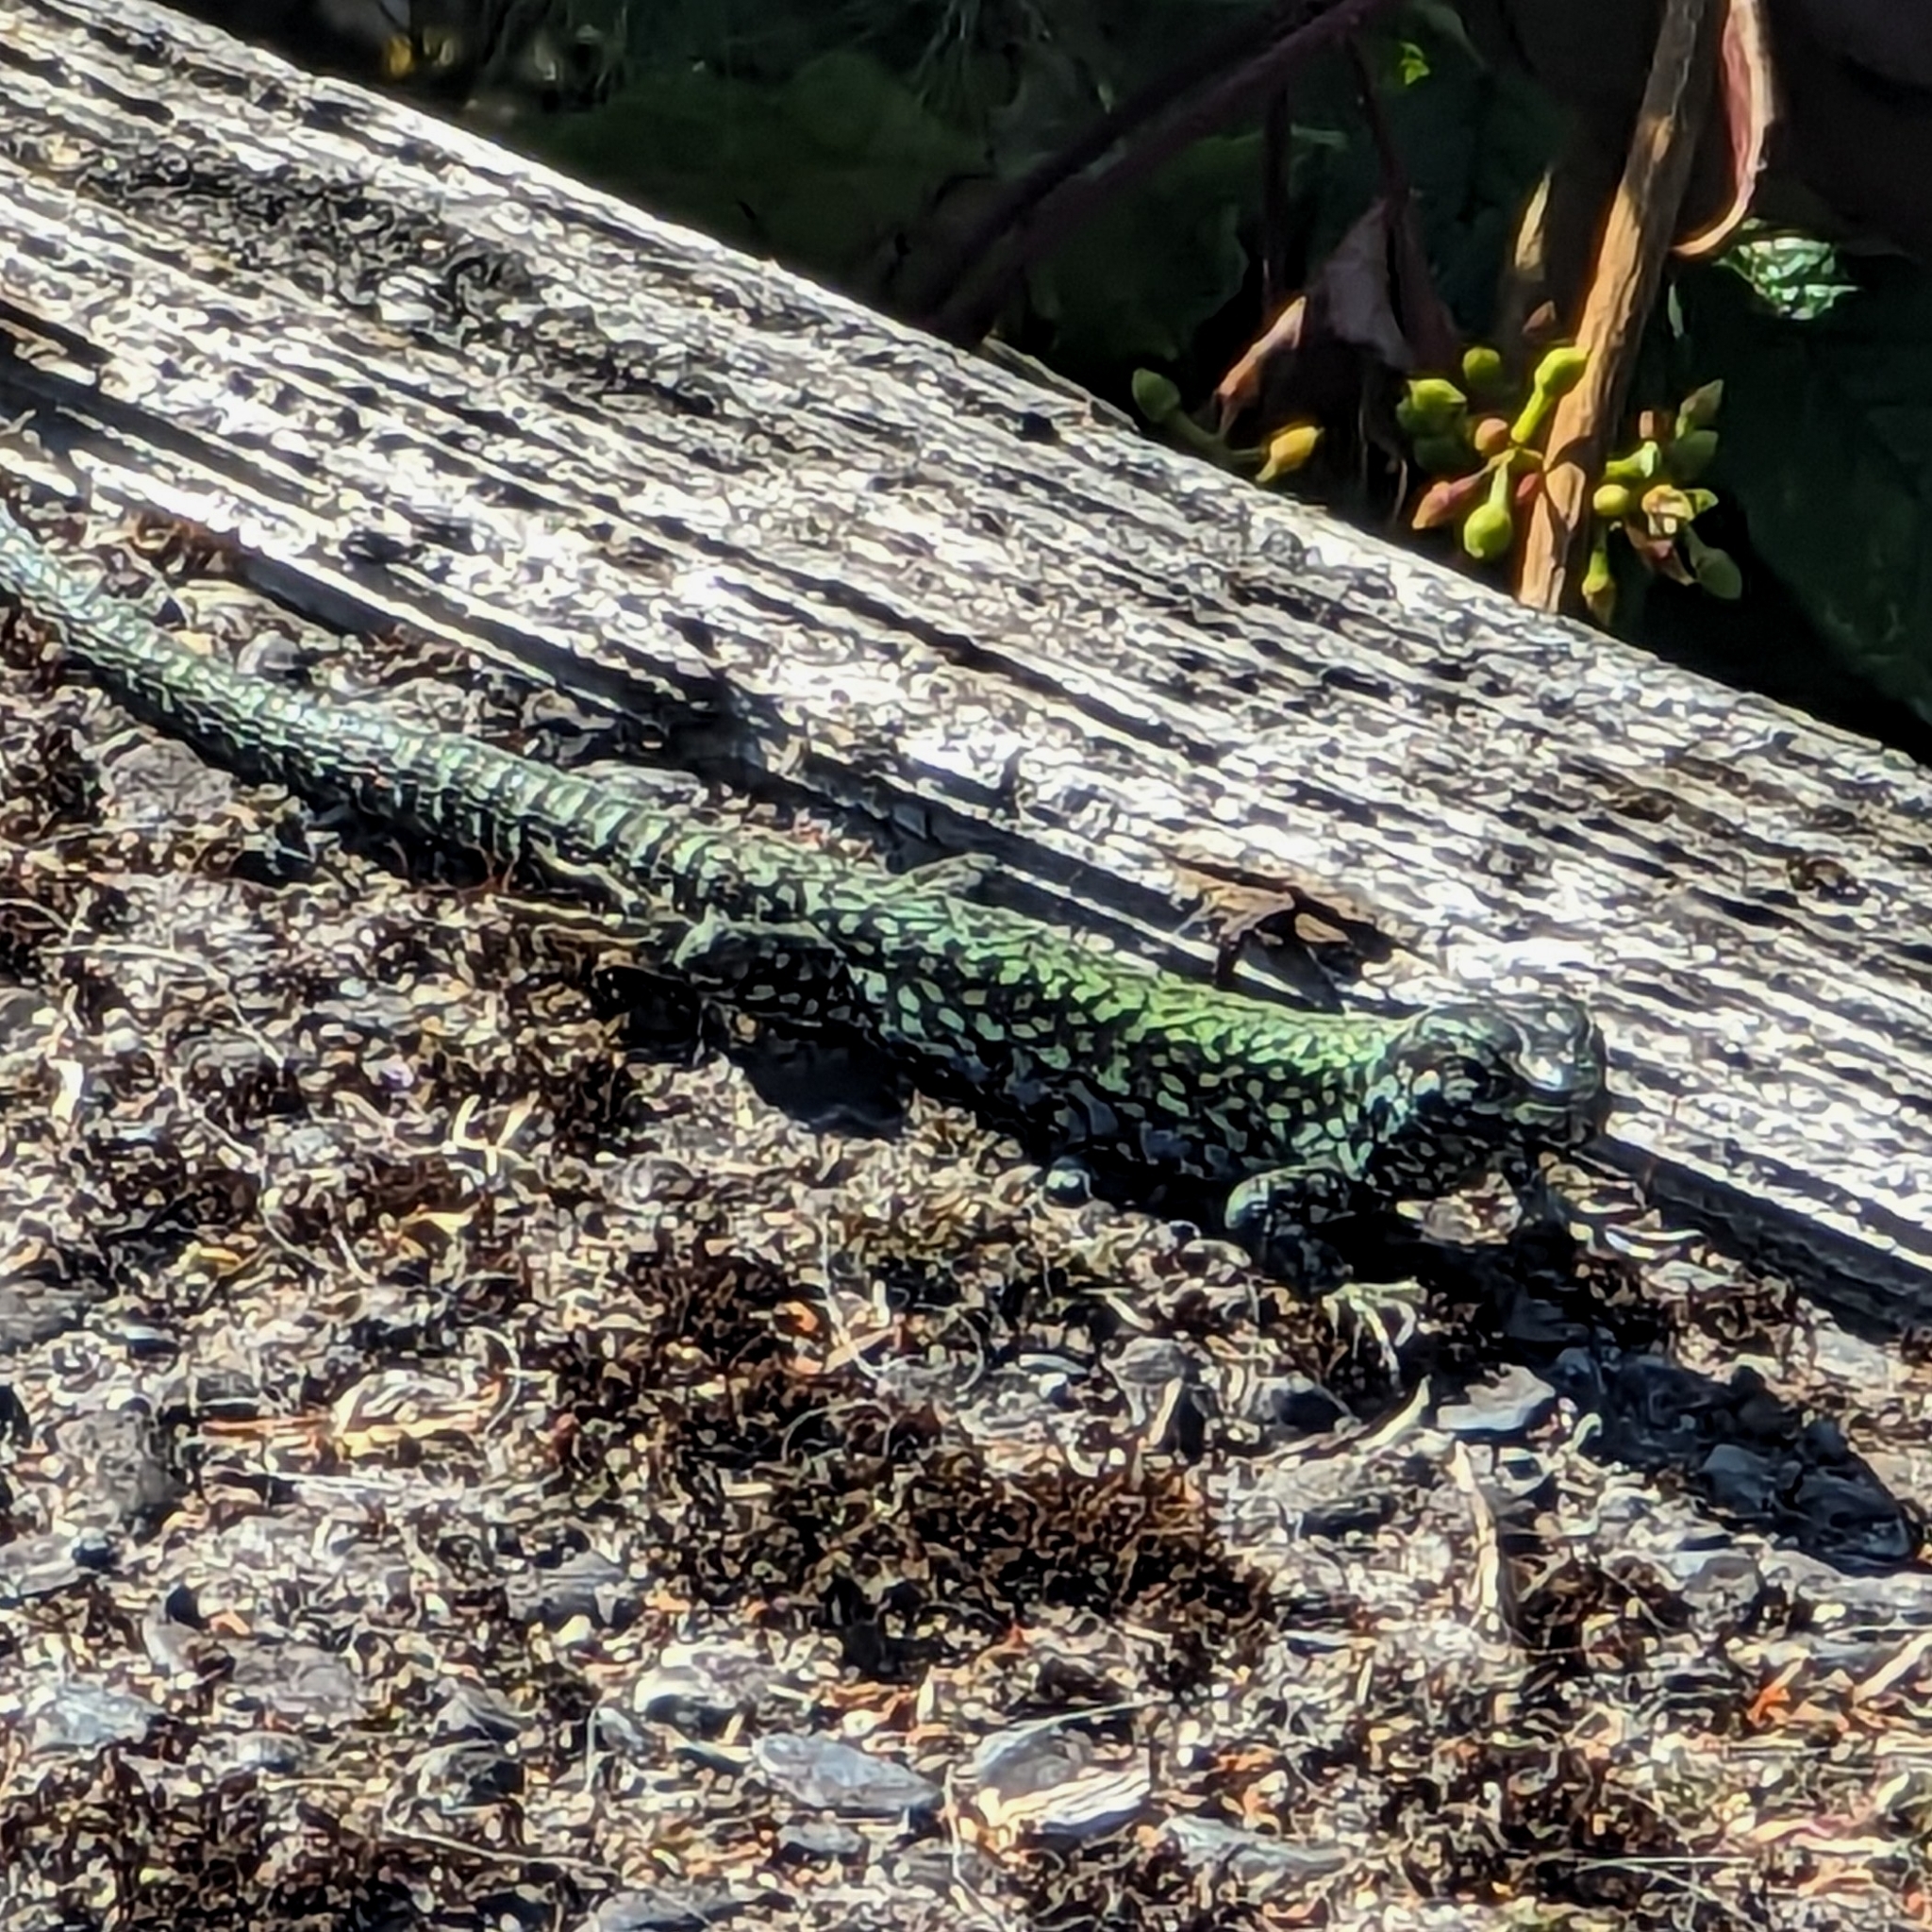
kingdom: Animalia
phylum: Chordata
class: Squamata
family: Lacertidae
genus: Podarcis
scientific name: Podarcis muralis
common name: Common wall lizard
